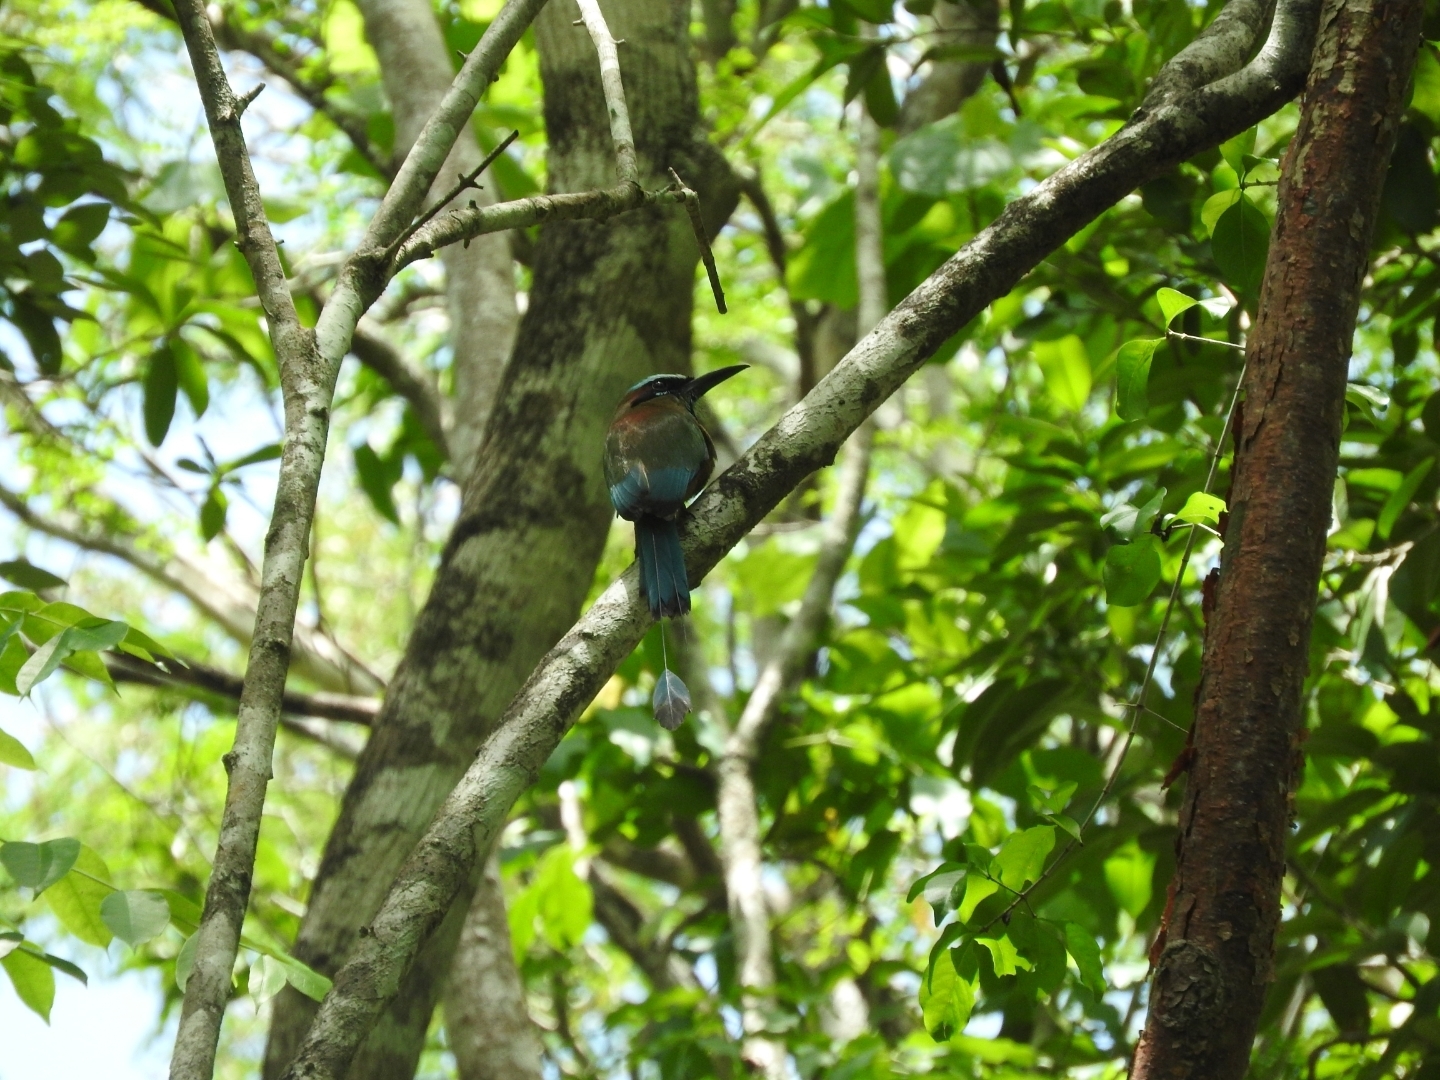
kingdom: Animalia
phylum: Chordata
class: Aves
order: Coraciiformes
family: Momotidae
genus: Eumomota
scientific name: Eumomota superciliosa
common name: Turquoise-browed motmot
